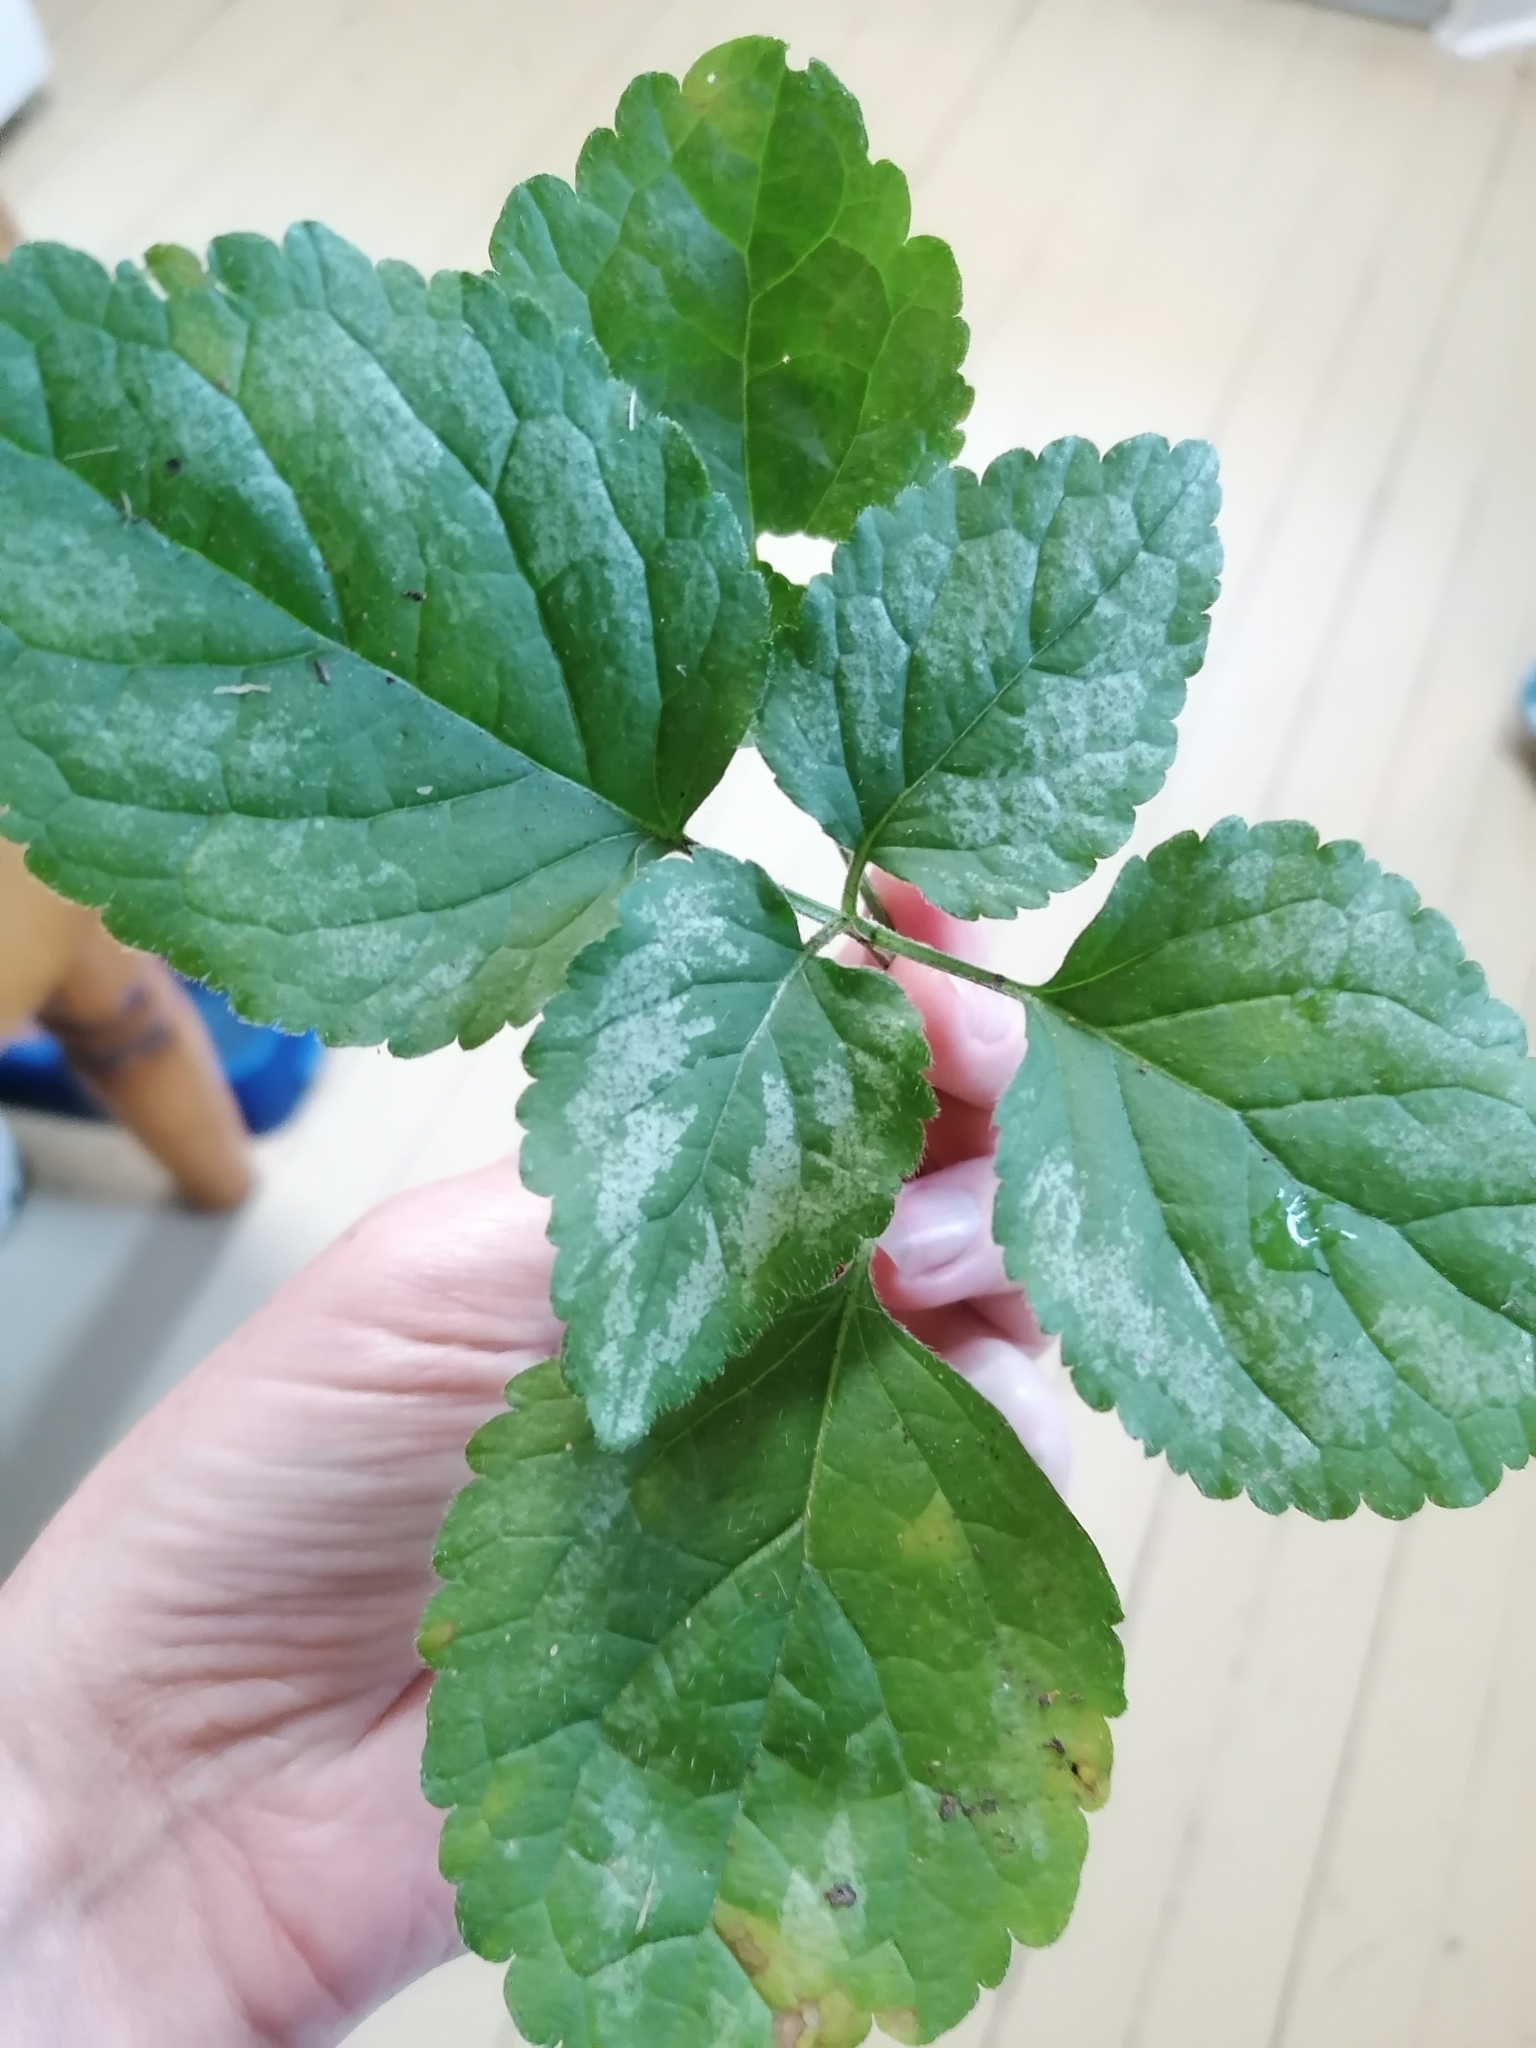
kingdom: Plantae
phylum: Tracheophyta
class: Magnoliopsida
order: Lamiales
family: Lamiaceae
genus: Lamium
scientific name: Lamium galeobdolon
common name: Yellow archangel
